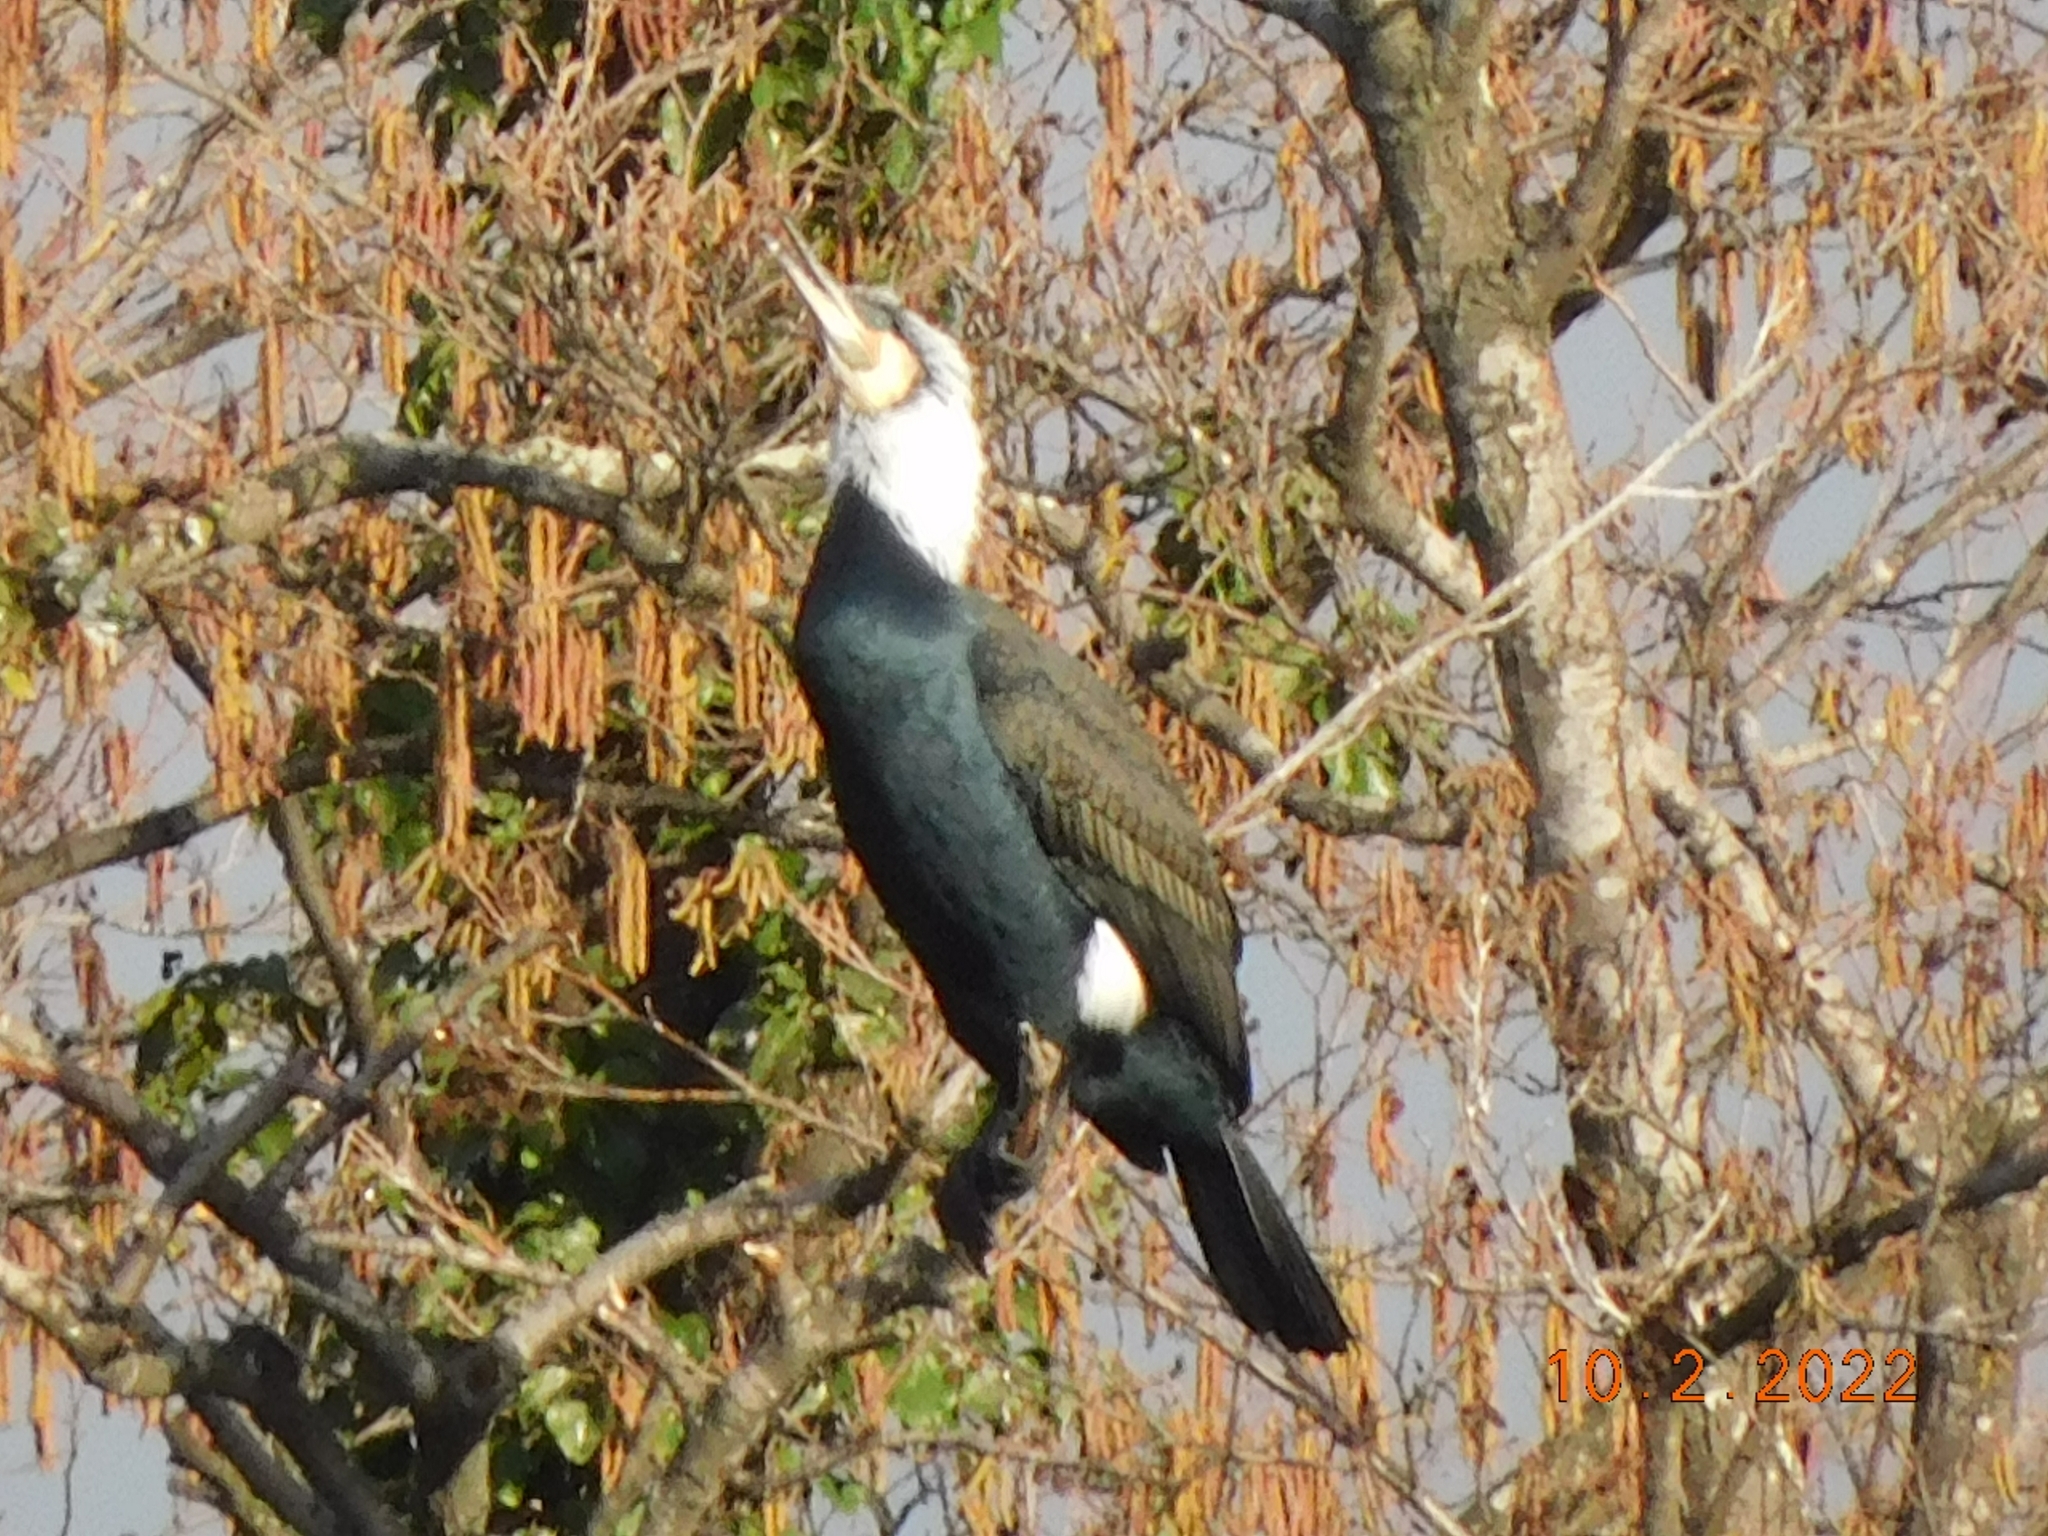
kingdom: Animalia
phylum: Chordata
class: Aves
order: Suliformes
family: Phalacrocoracidae
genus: Phalacrocorax
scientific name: Phalacrocorax carbo
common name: Great cormorant
